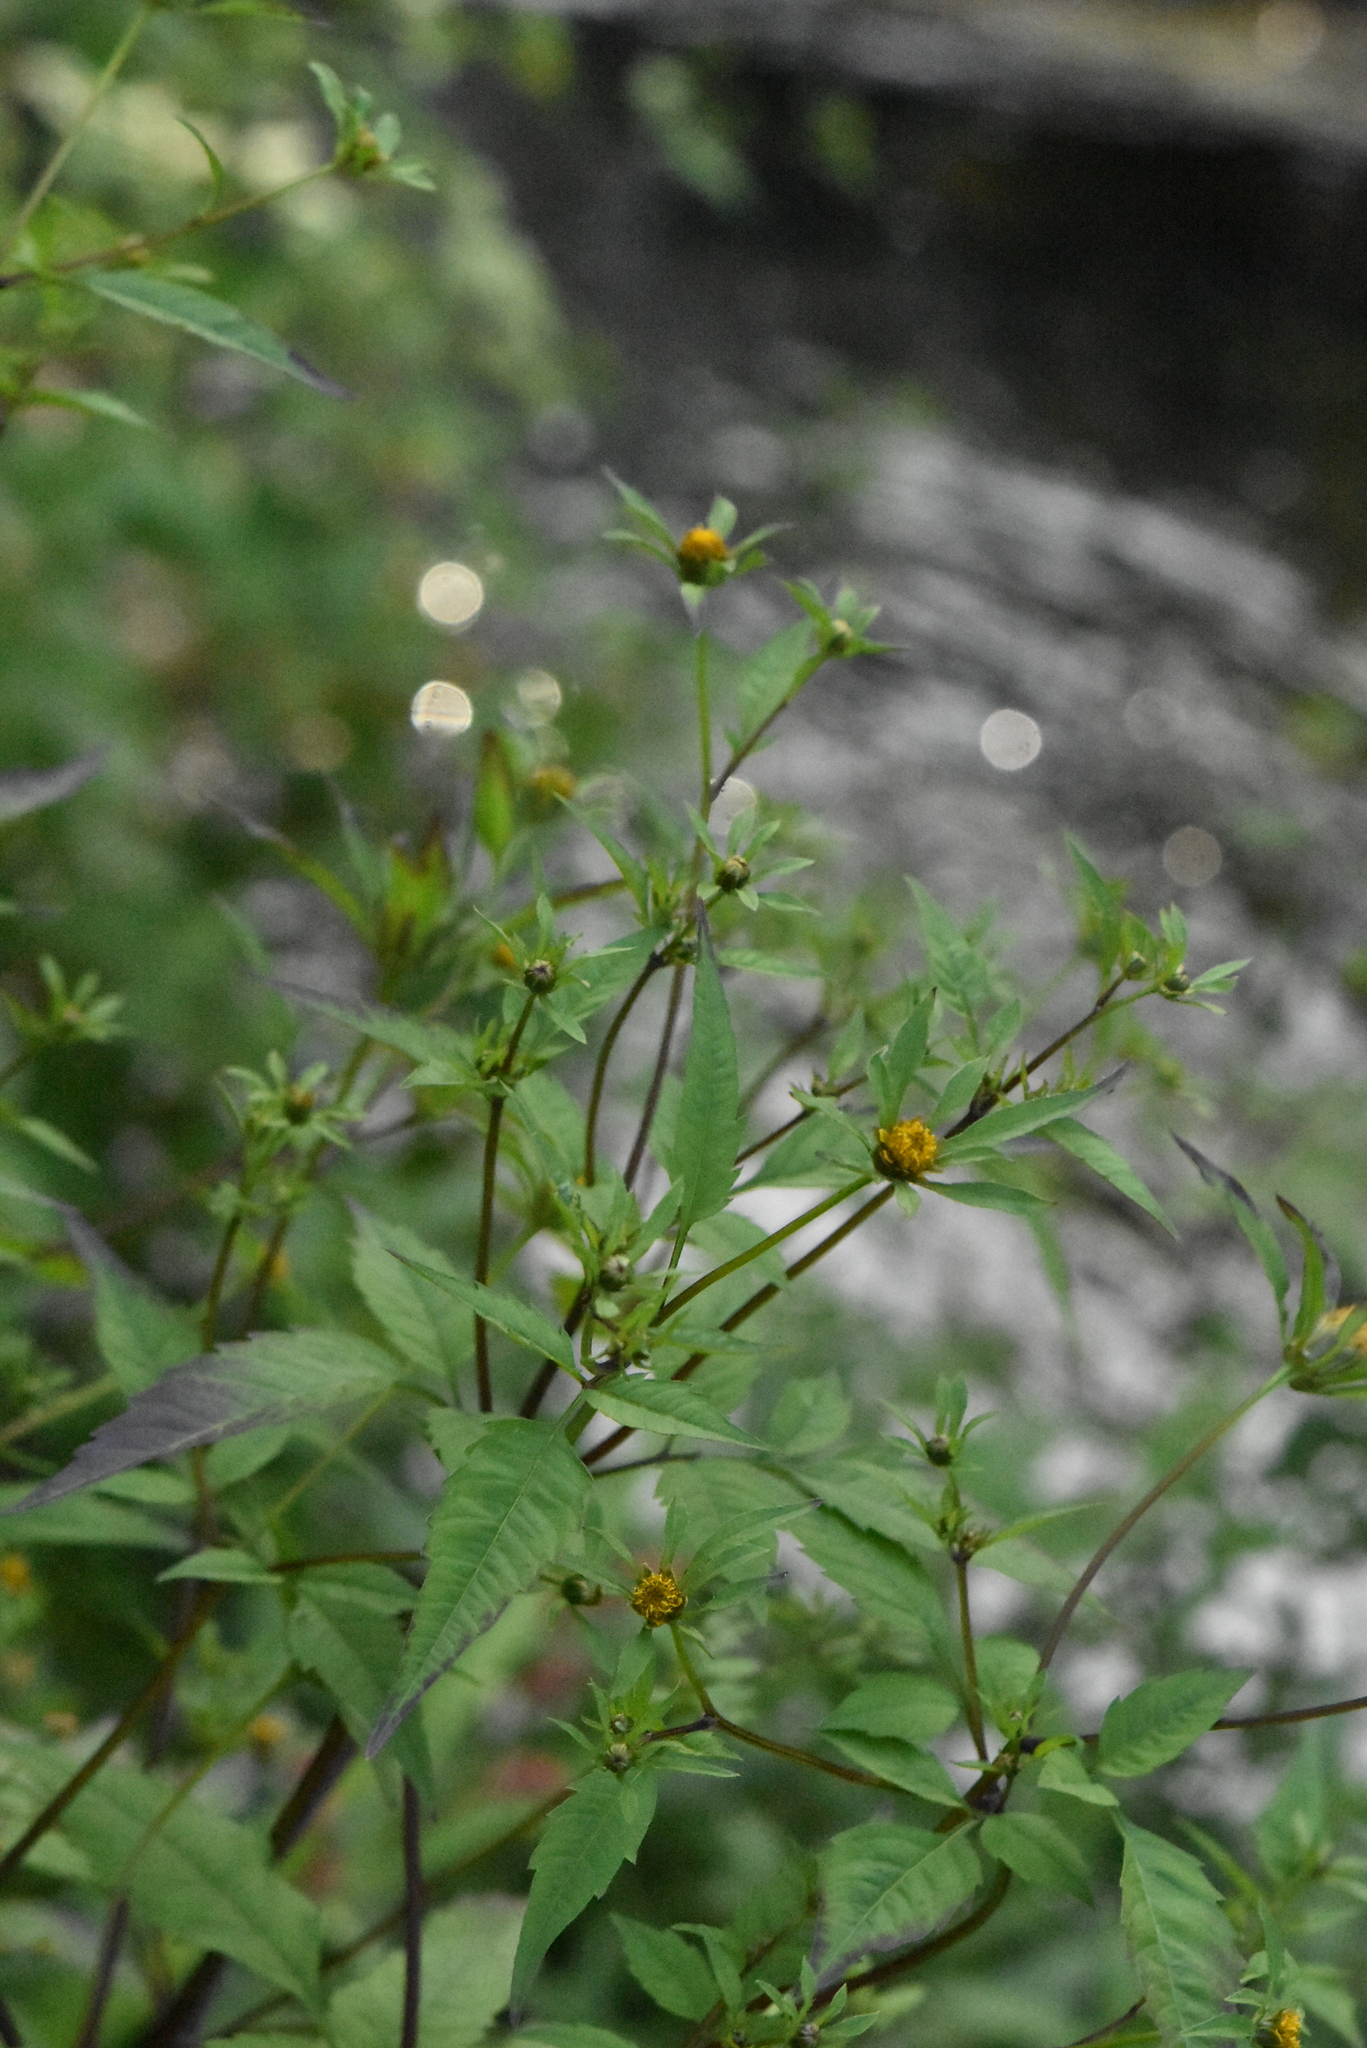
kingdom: Plantae
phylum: Tracheophyta
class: Magnoliopsida
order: Asterales
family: Asteraceae
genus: Bidens
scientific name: Bidens frondosa
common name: Beggarticks
